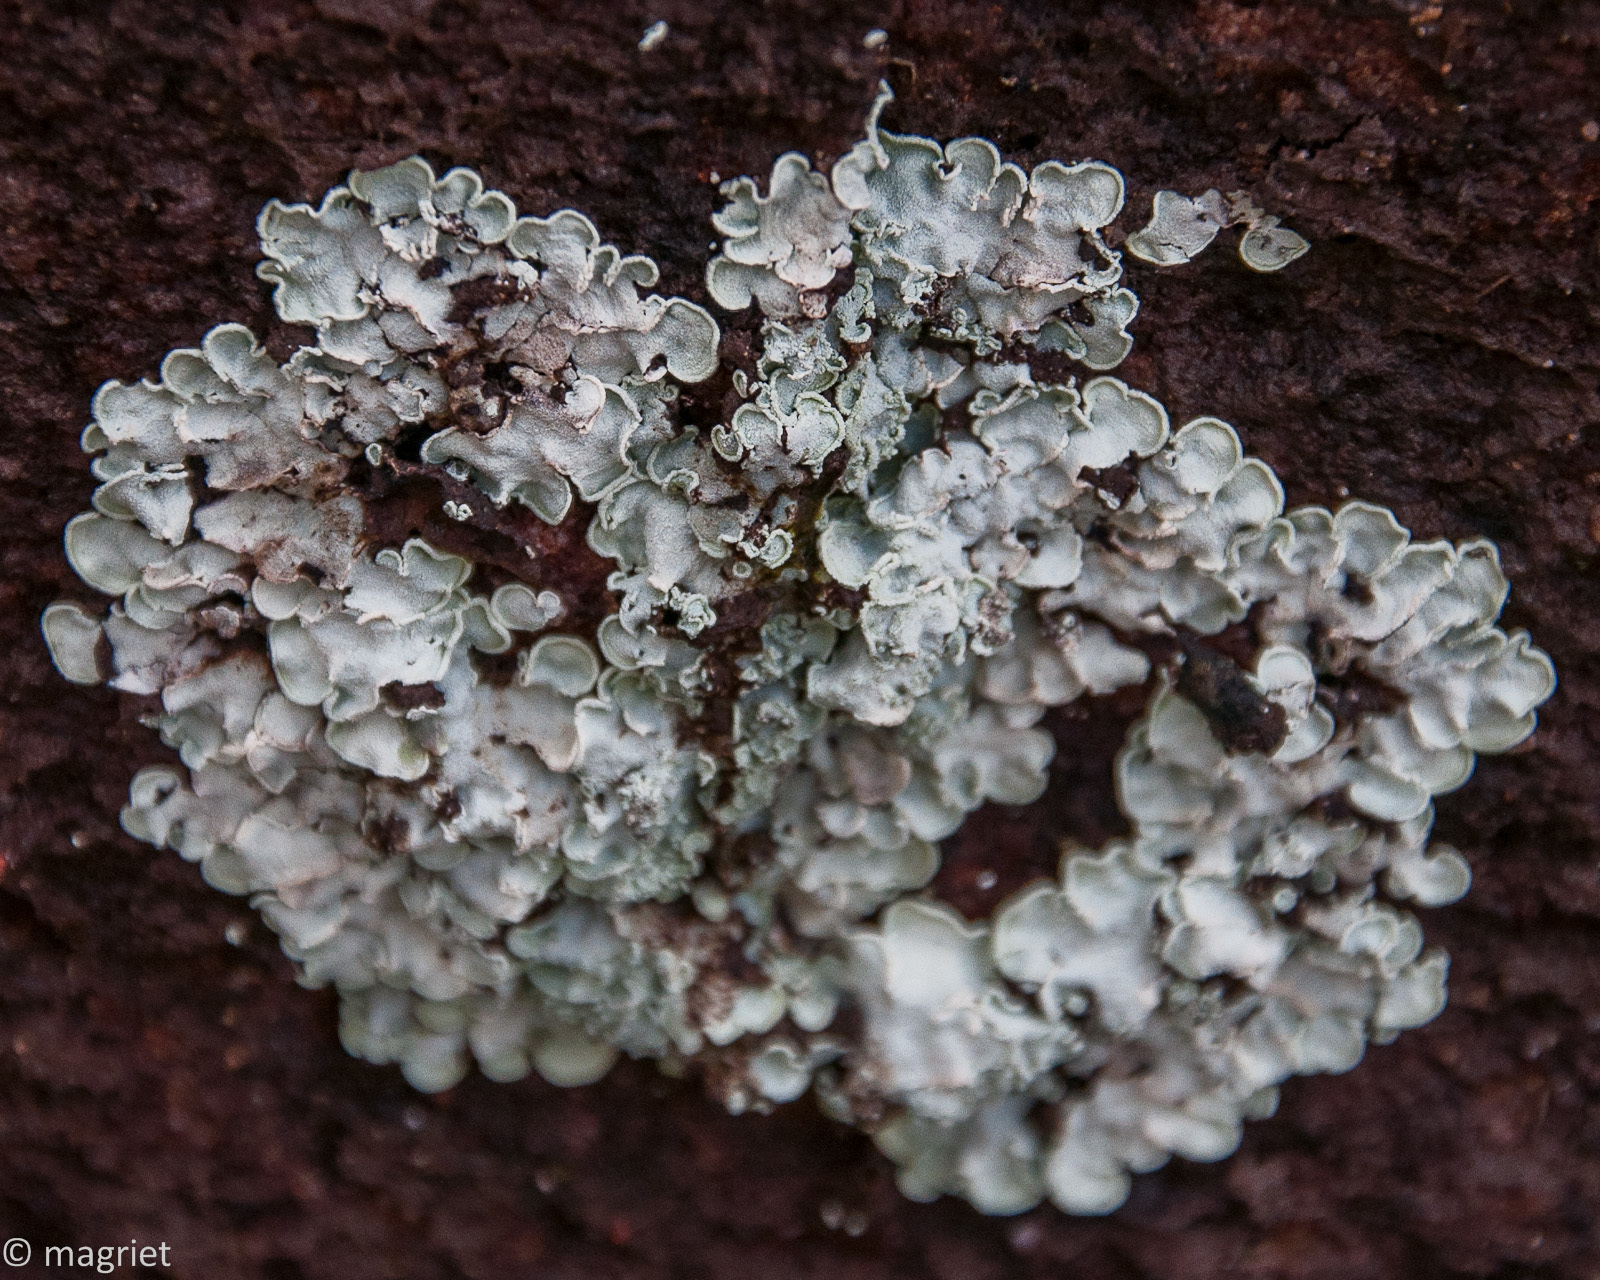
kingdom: Fungi
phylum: Ascomycota
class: Eurotiomycetes
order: Verrucariales
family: Verrucariaceae
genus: Normandina
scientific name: Normandina pulchella
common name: Elf ears lichen
